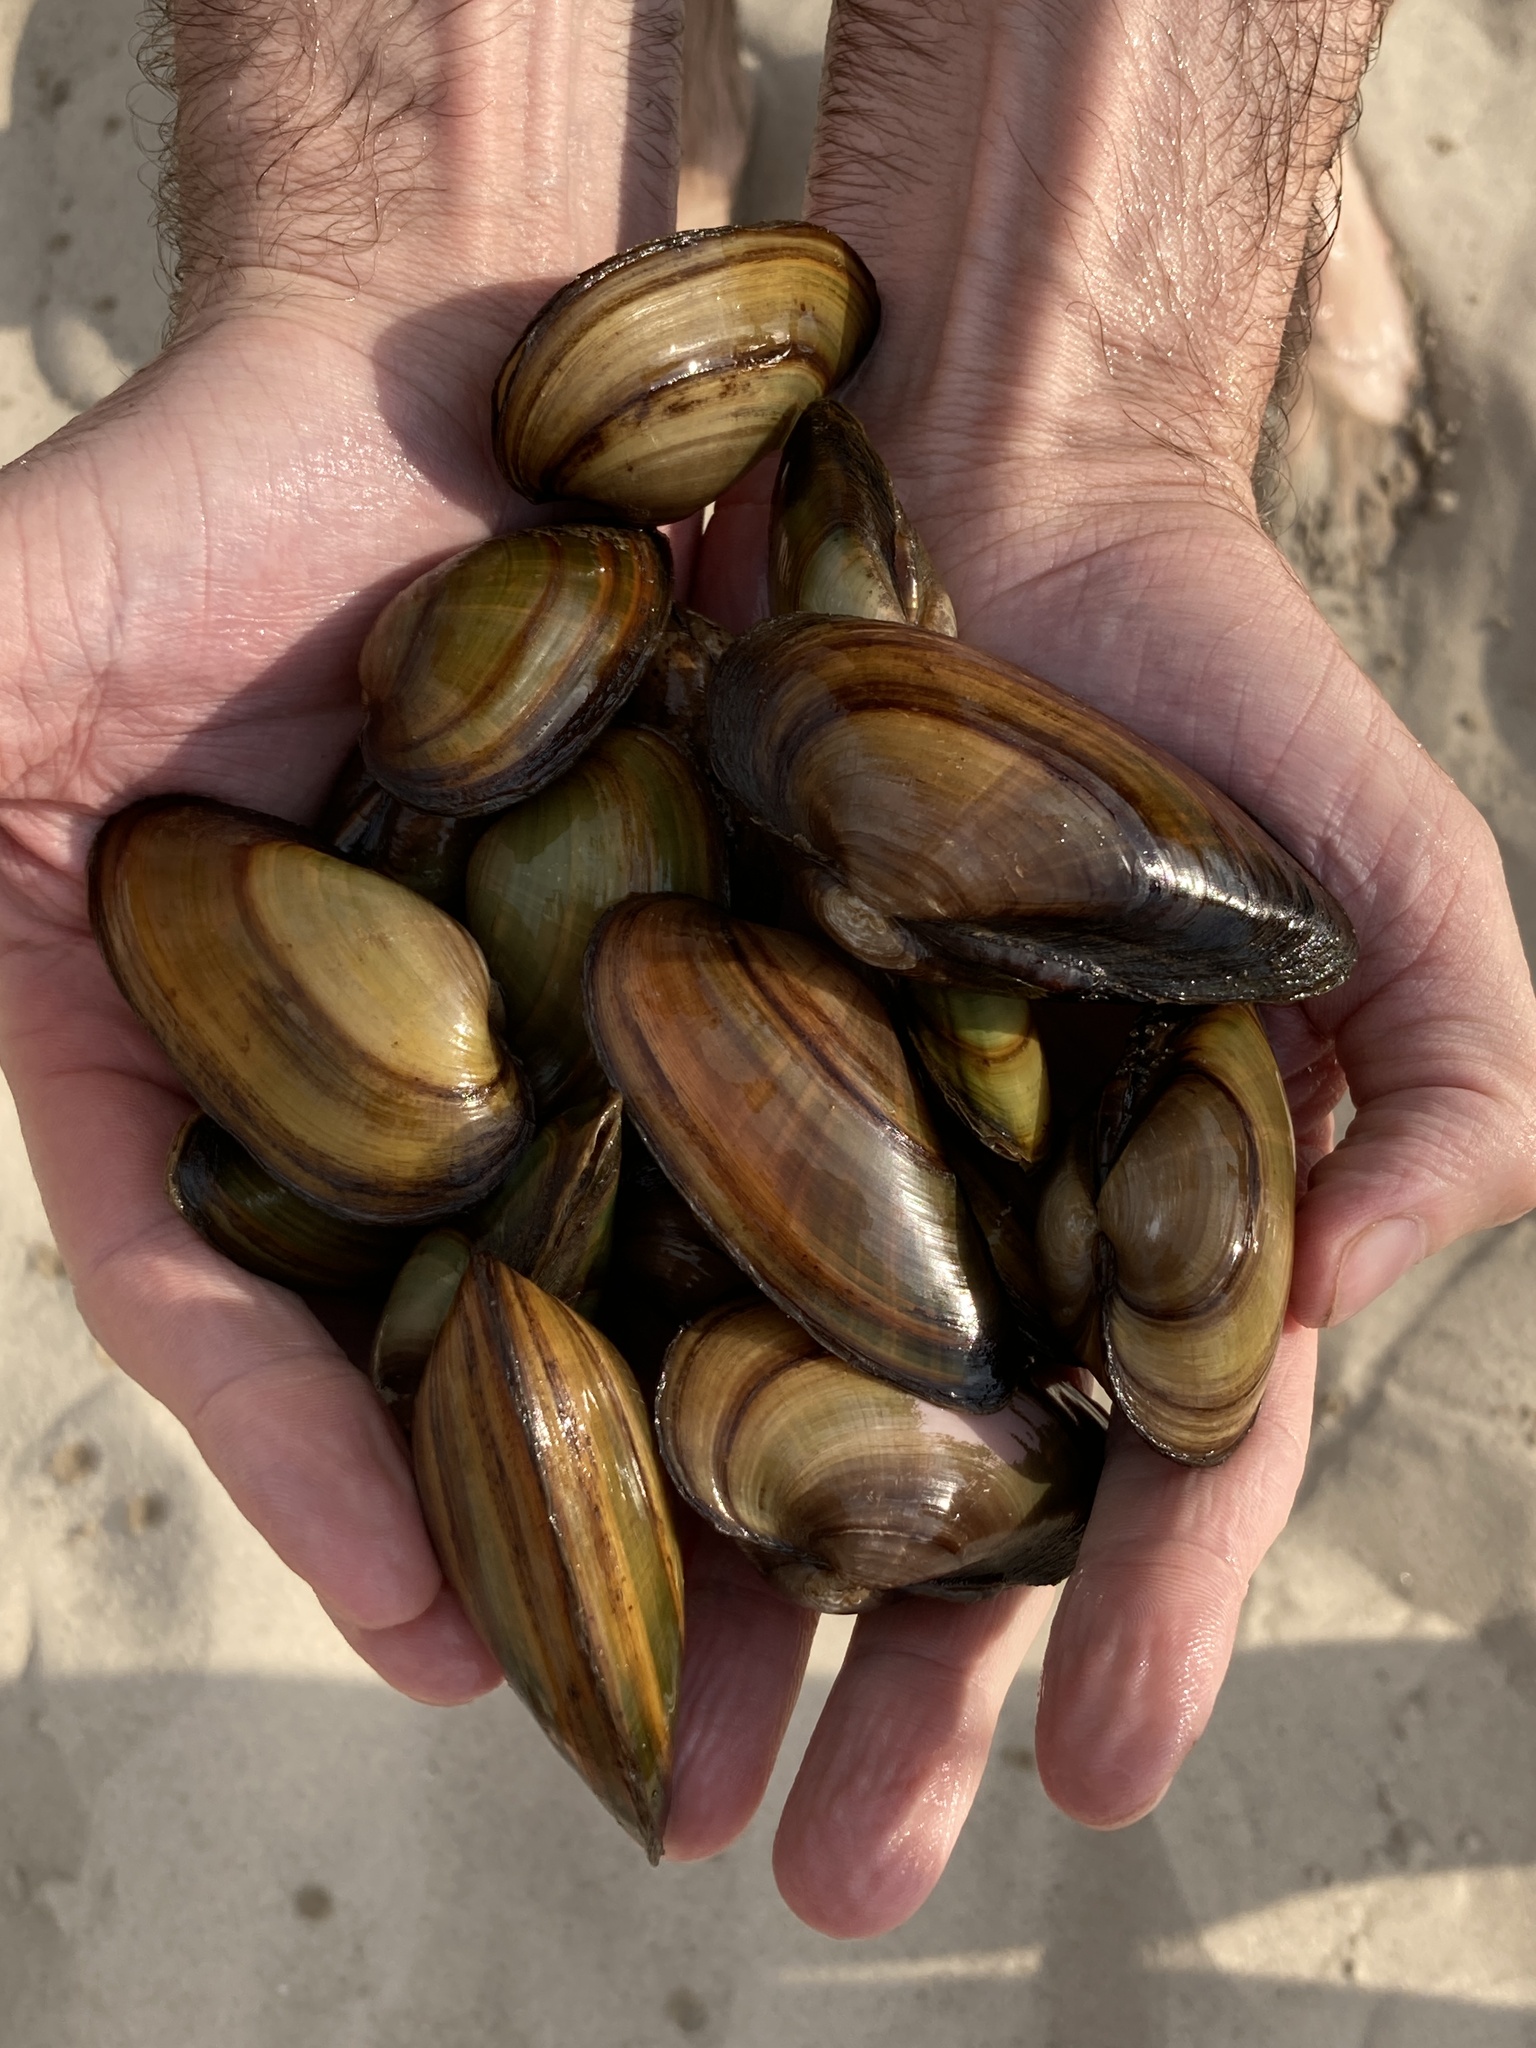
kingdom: Animalia
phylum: Mollusca
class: Bivalvia
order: Unionida
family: Unionidae
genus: Unio
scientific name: Unio tumidus
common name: Swollen river mussel
